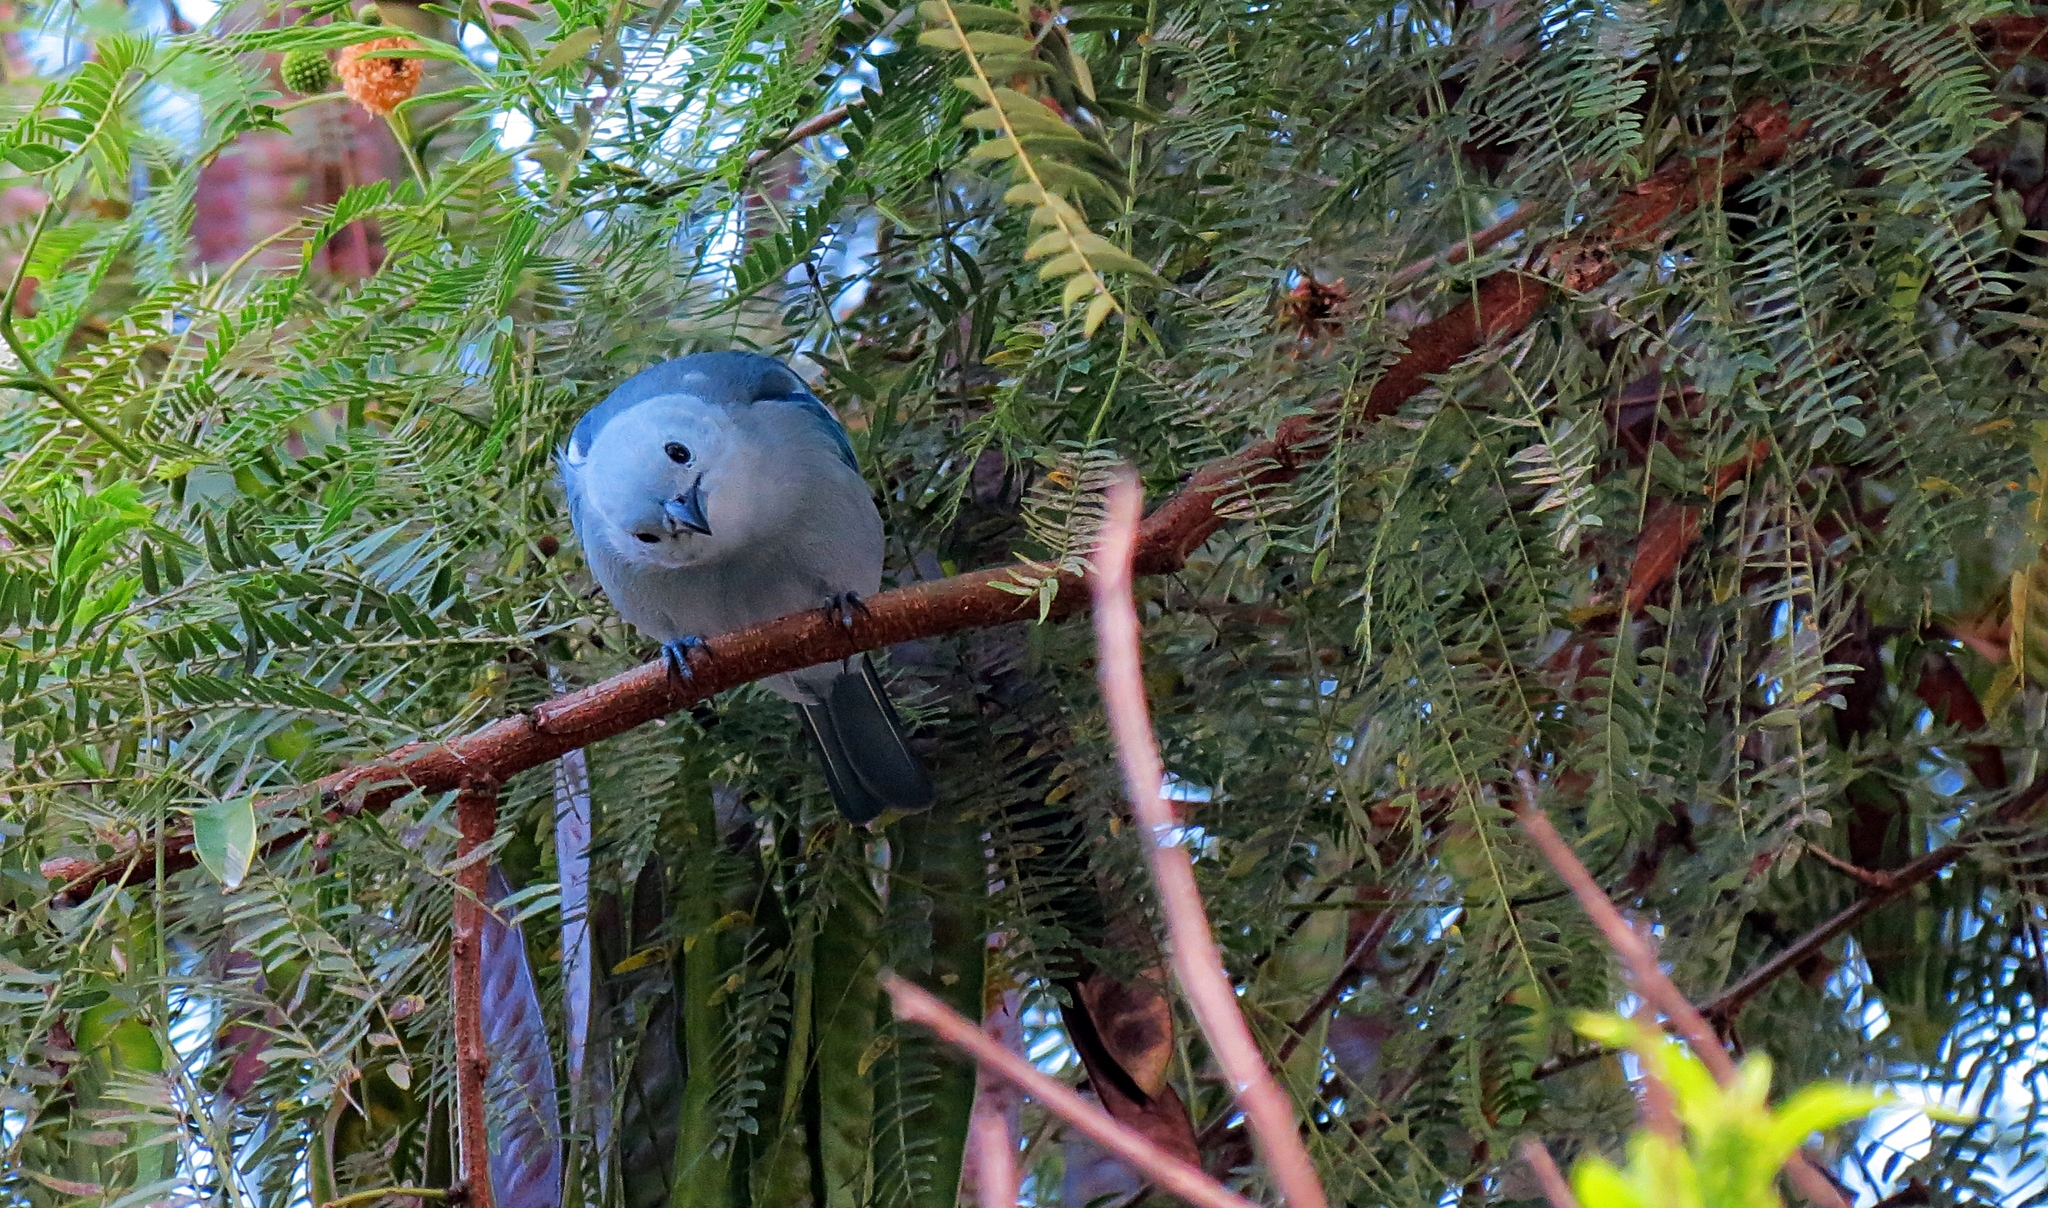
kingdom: Animalia
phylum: Chordata
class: Aves
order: Passeriformes
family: Thraupidae
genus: Thraupis
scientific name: Thraupis episcopus
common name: Blue-grey tanager
